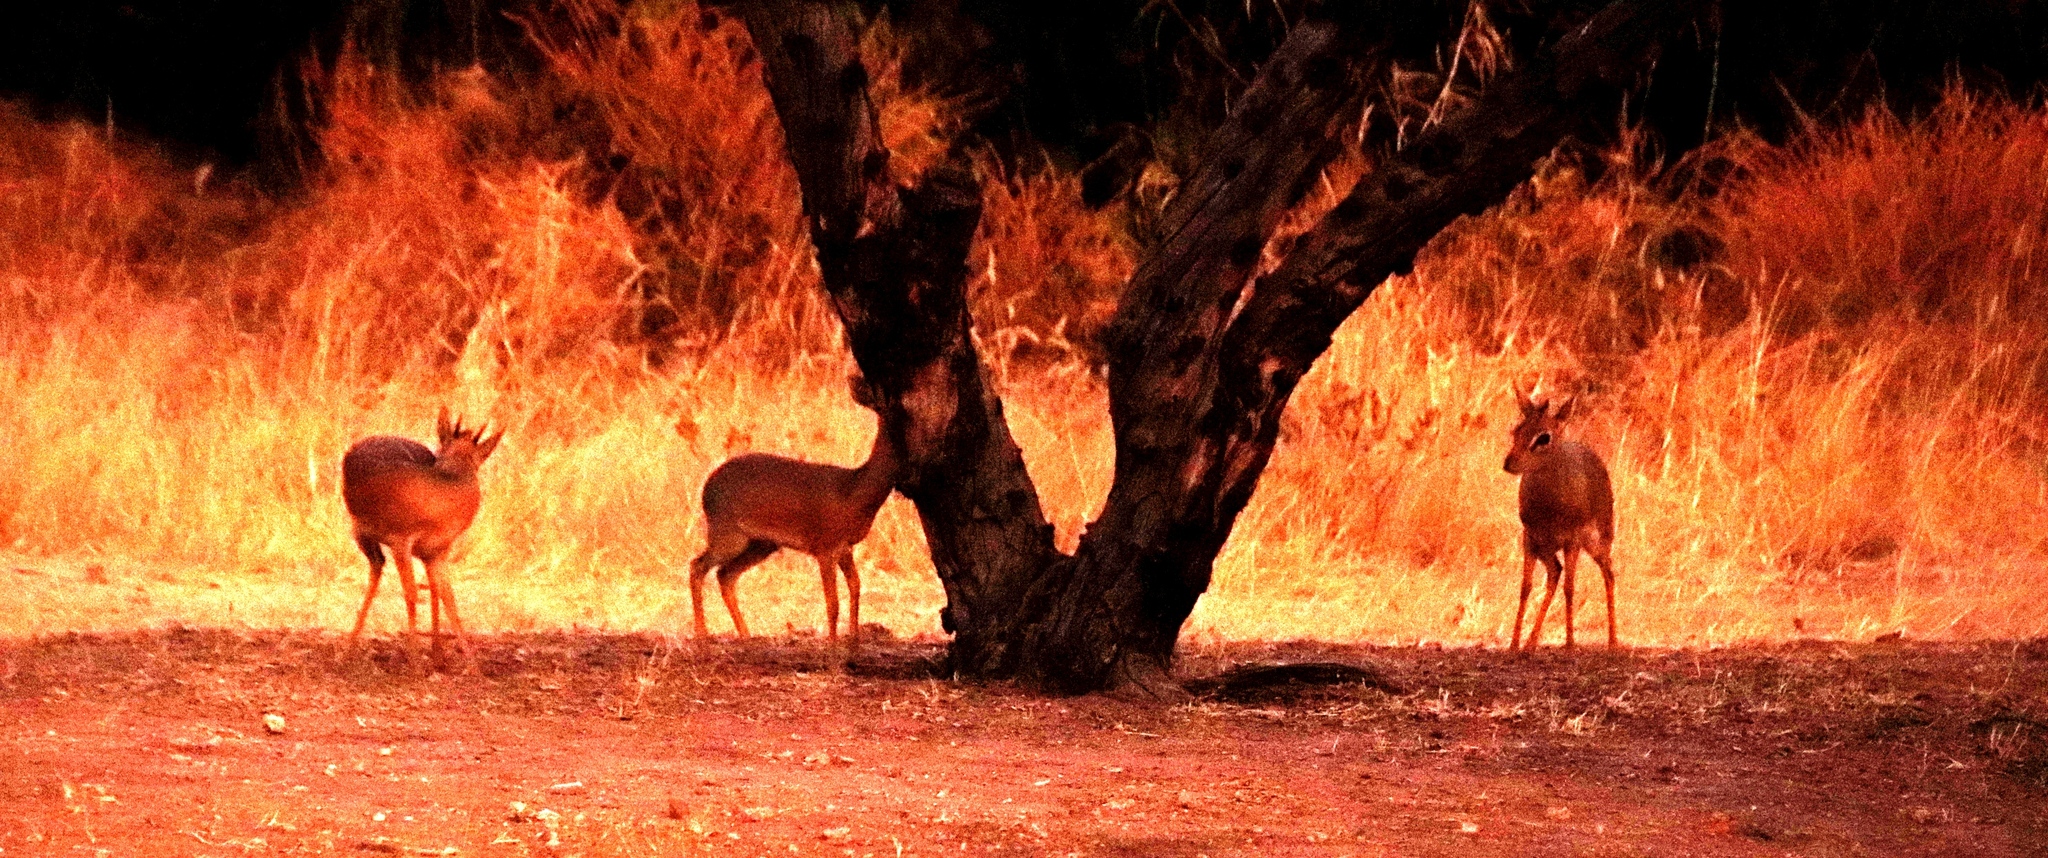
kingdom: Animalia
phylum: Chordata
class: Mammalia
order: Artiodactyla
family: Bovidae
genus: Madoqua
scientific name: Madoqua kirkii
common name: Kirk's dik-dik
